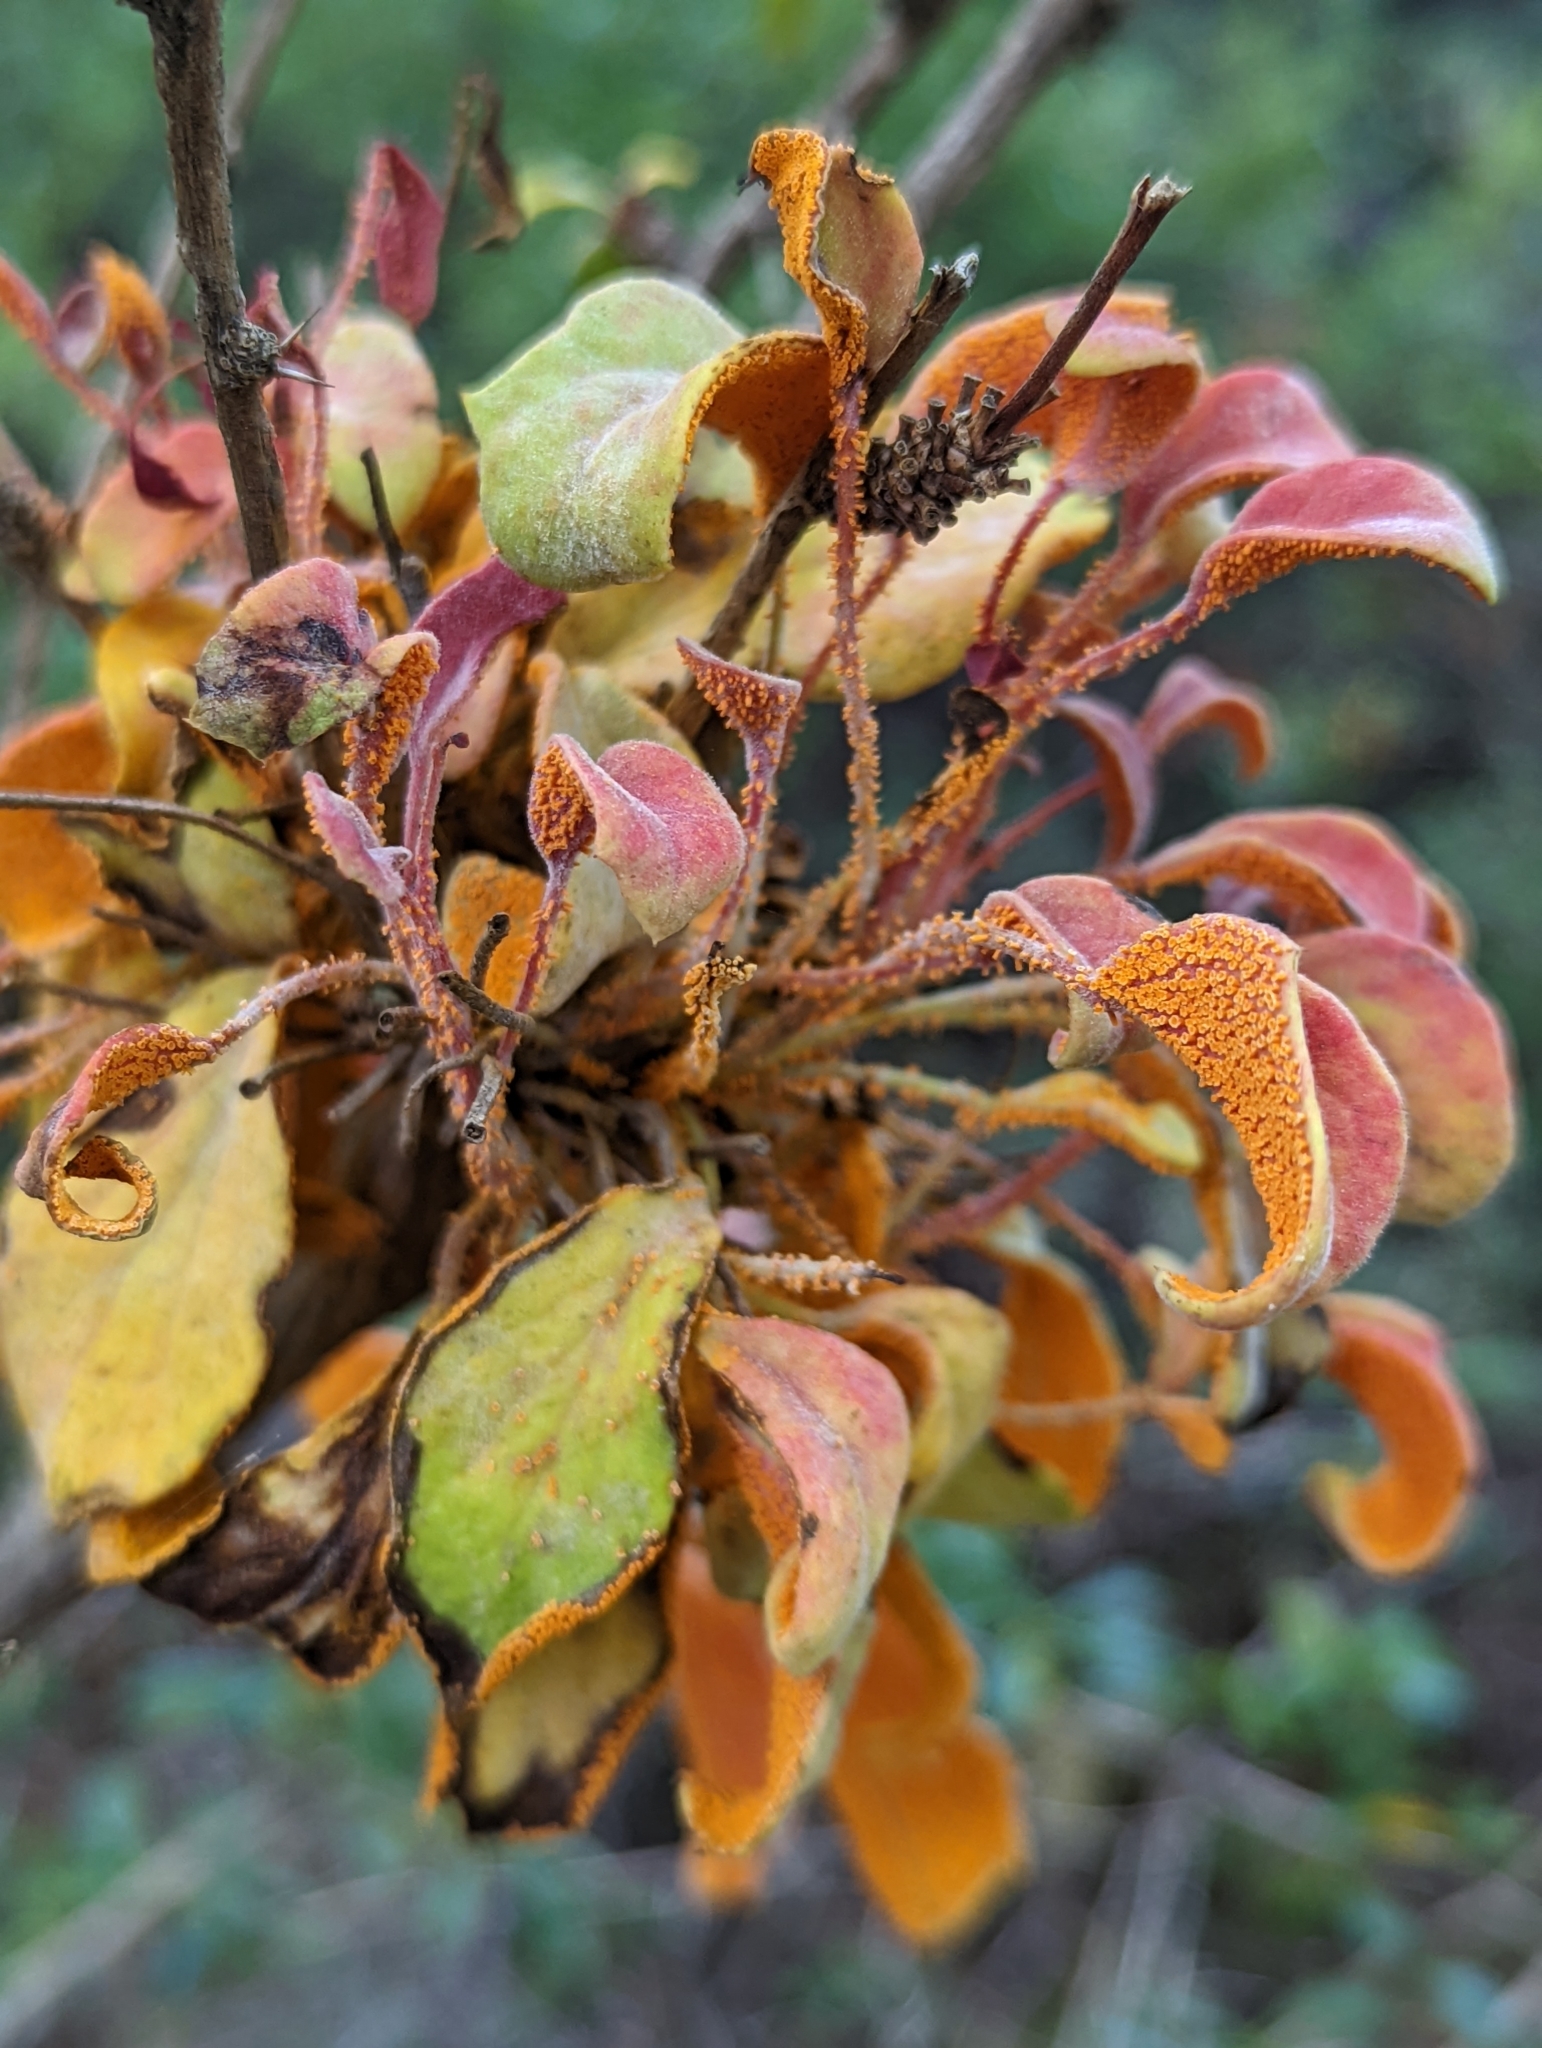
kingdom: Fungi
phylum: Basidiomycota
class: Pucciniomycetes
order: Pucciniales
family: Pucciniaceae
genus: Puccinia
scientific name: Puccinia magellanica
